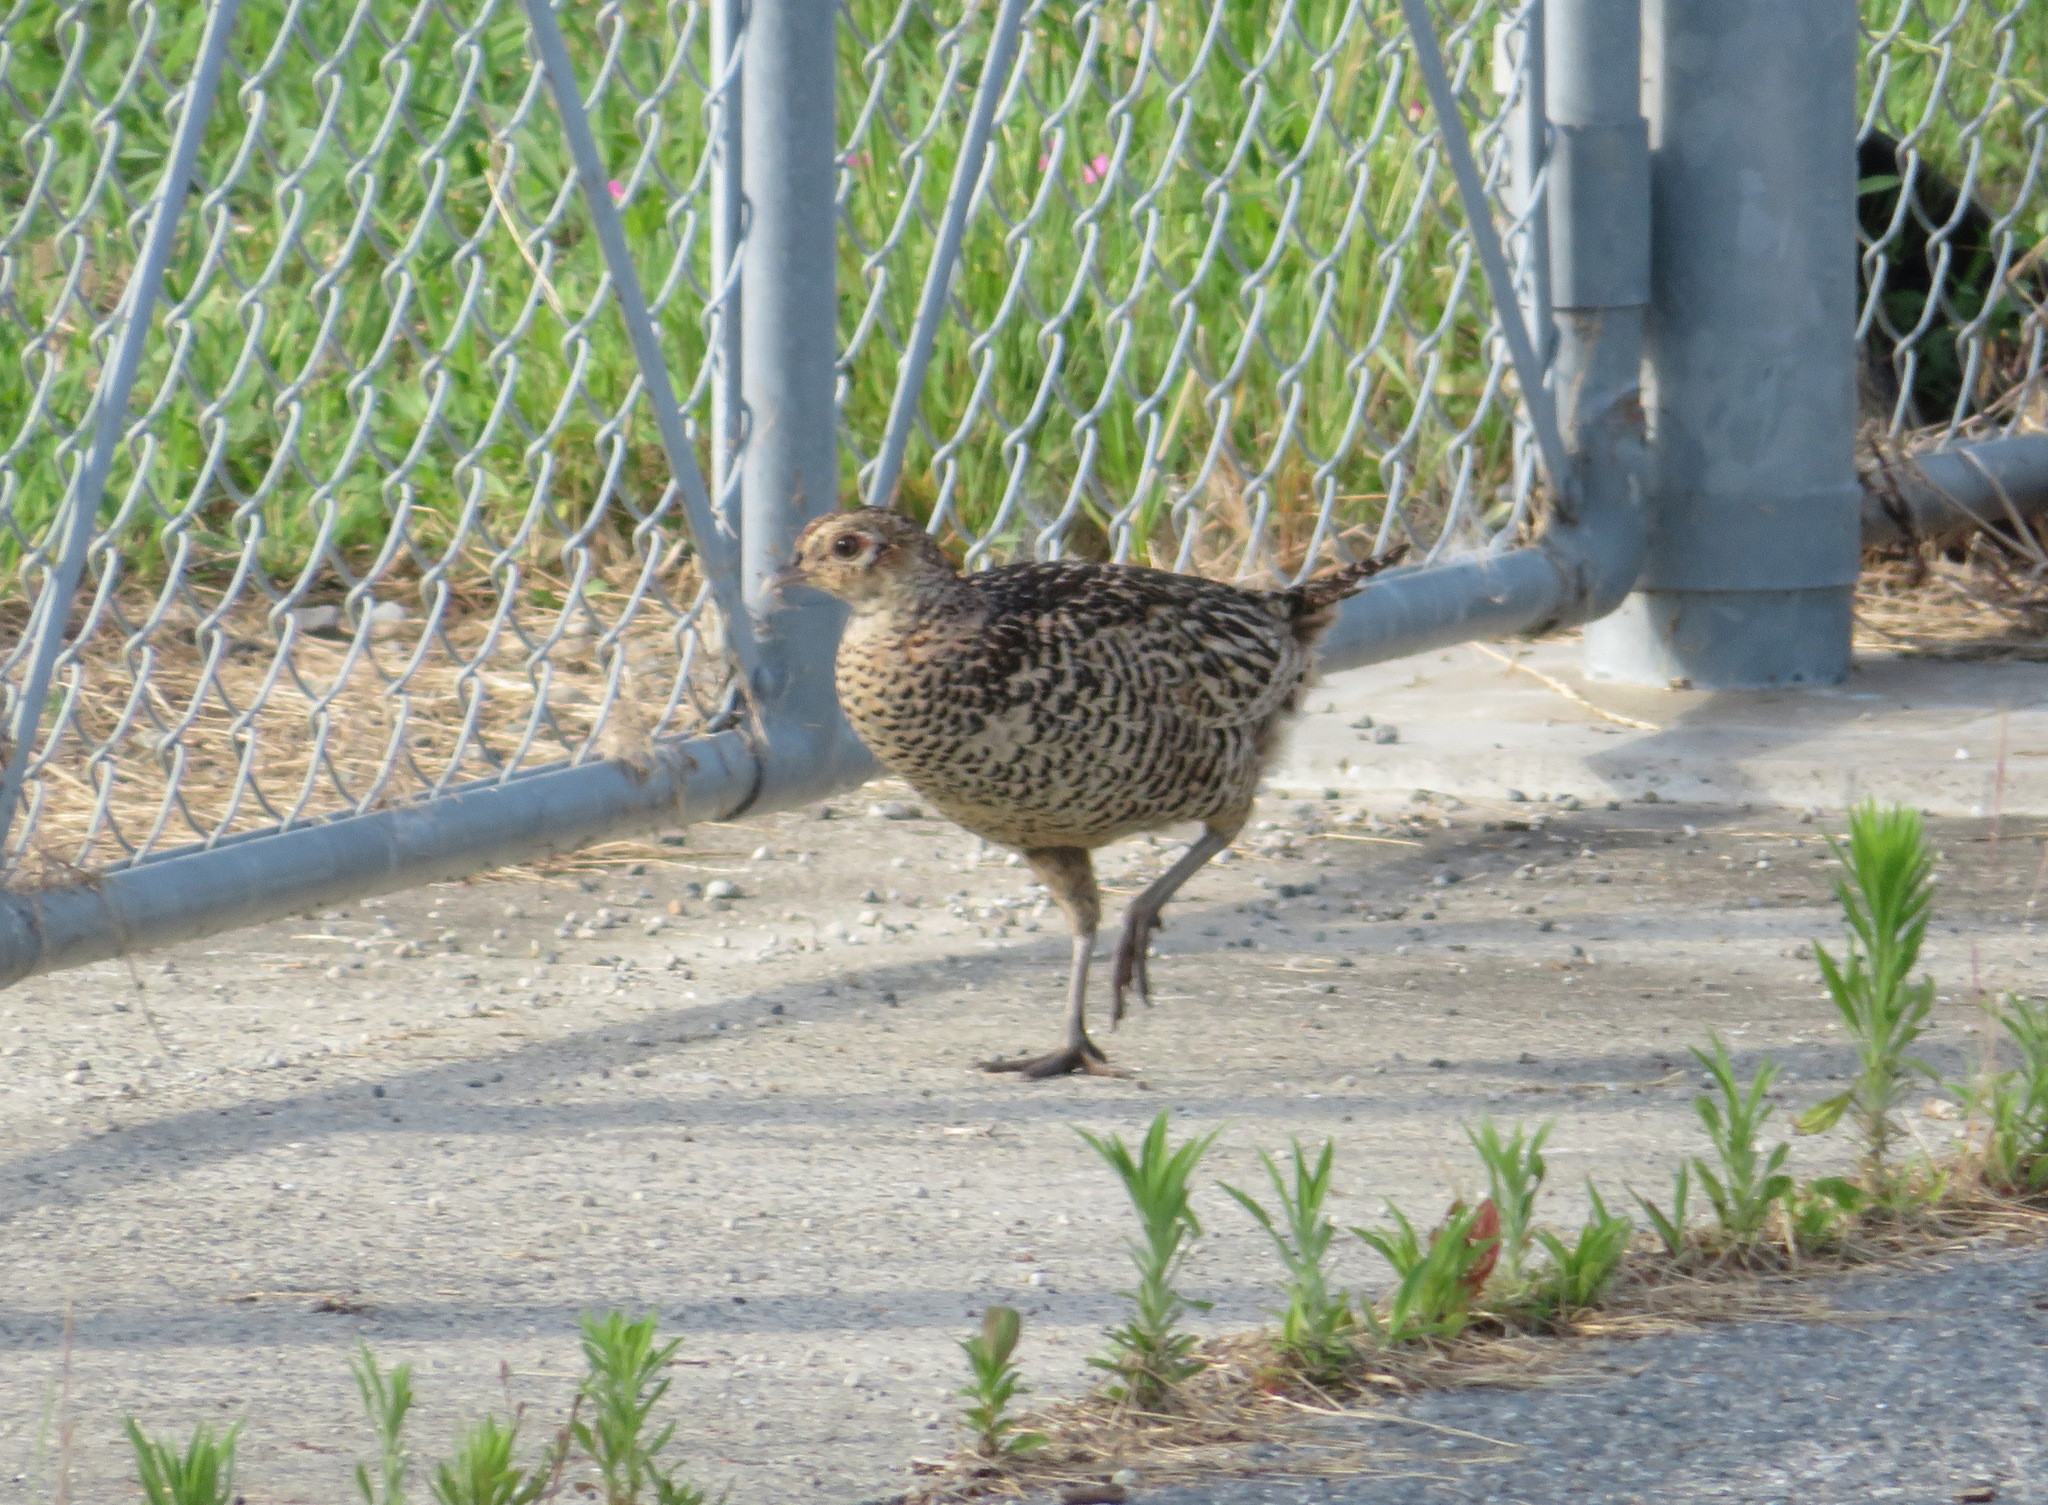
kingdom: Animalia
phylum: Chordata
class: Aves
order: Galliformes
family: Phasianidae
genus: Phasianus
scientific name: Phasianus versicolor
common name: Green pheasant
